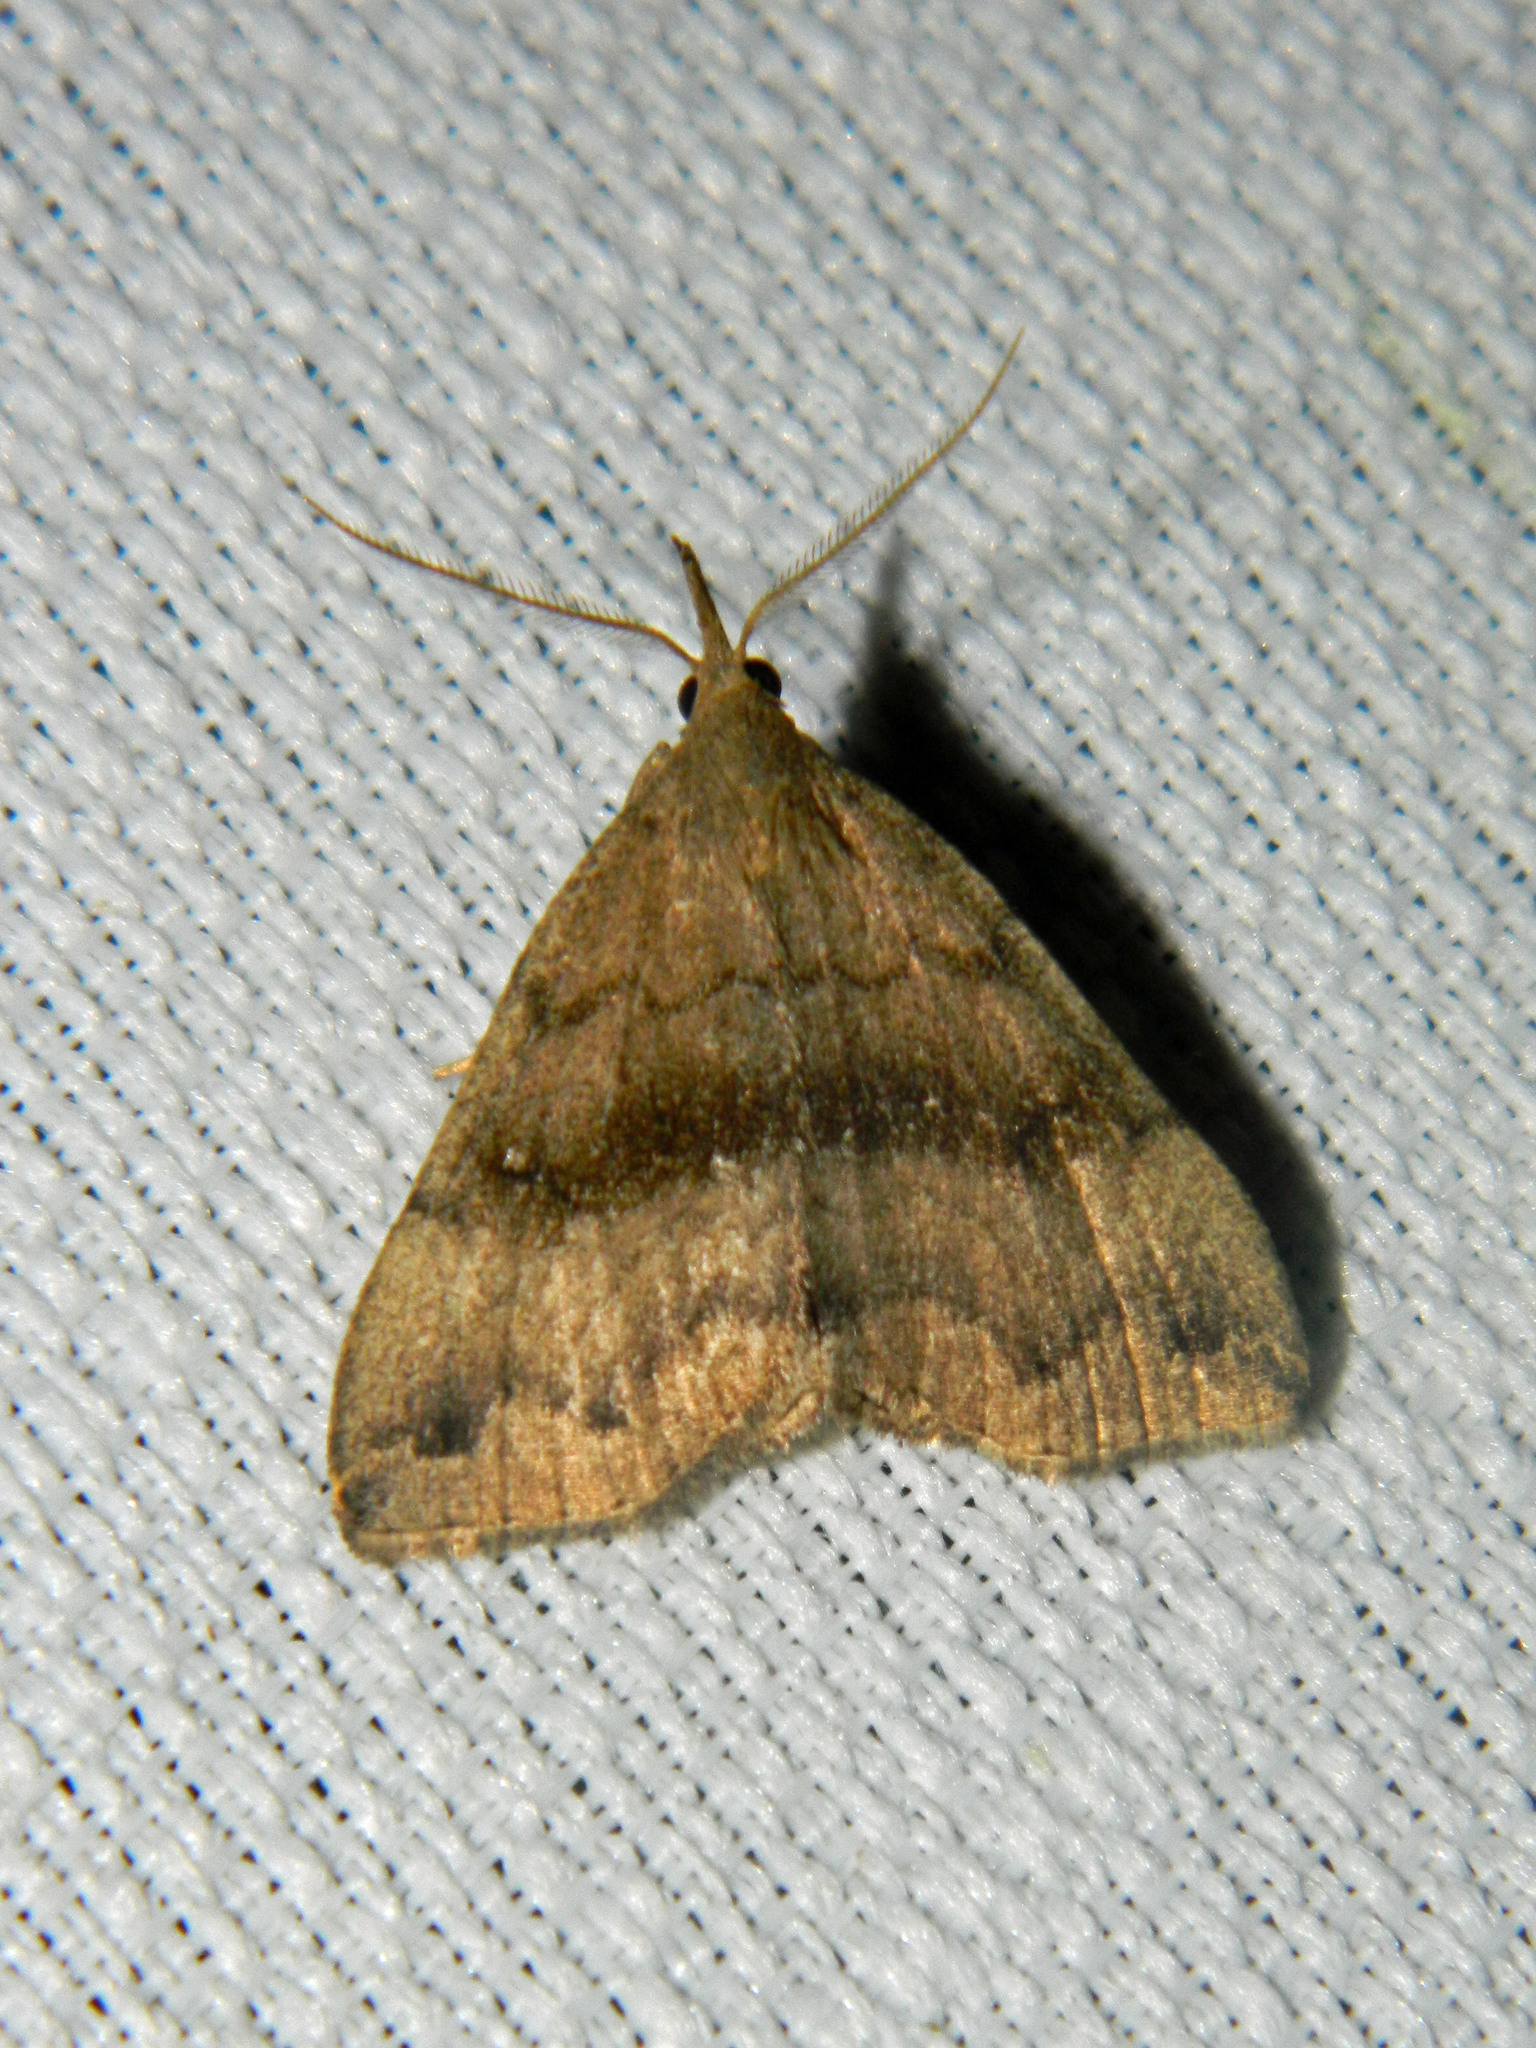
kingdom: Animalia
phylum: Arthropoda
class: Insecta
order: Lepidoptera
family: Erebidae
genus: Phalaenostola
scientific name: Phalaenostola eumelusalis
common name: Dark phalaenostola moth
